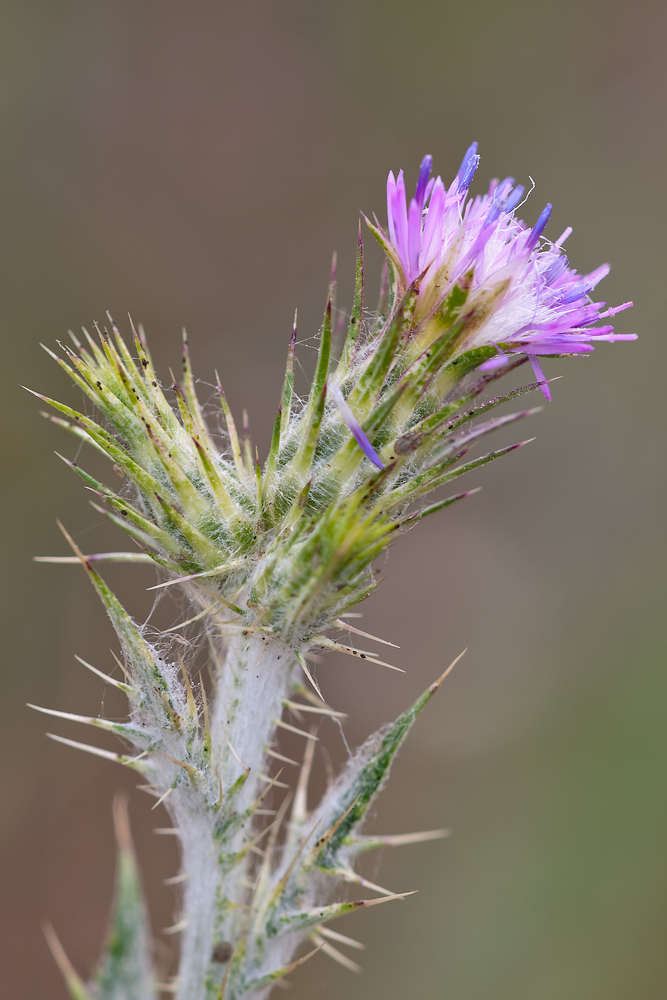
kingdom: Plantae
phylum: Tracheophyta
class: Magnoliopsida
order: Asterales
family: Asteraceae
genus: Carduus
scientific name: Carduus pycnocephalus
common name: Plymouth thistle
